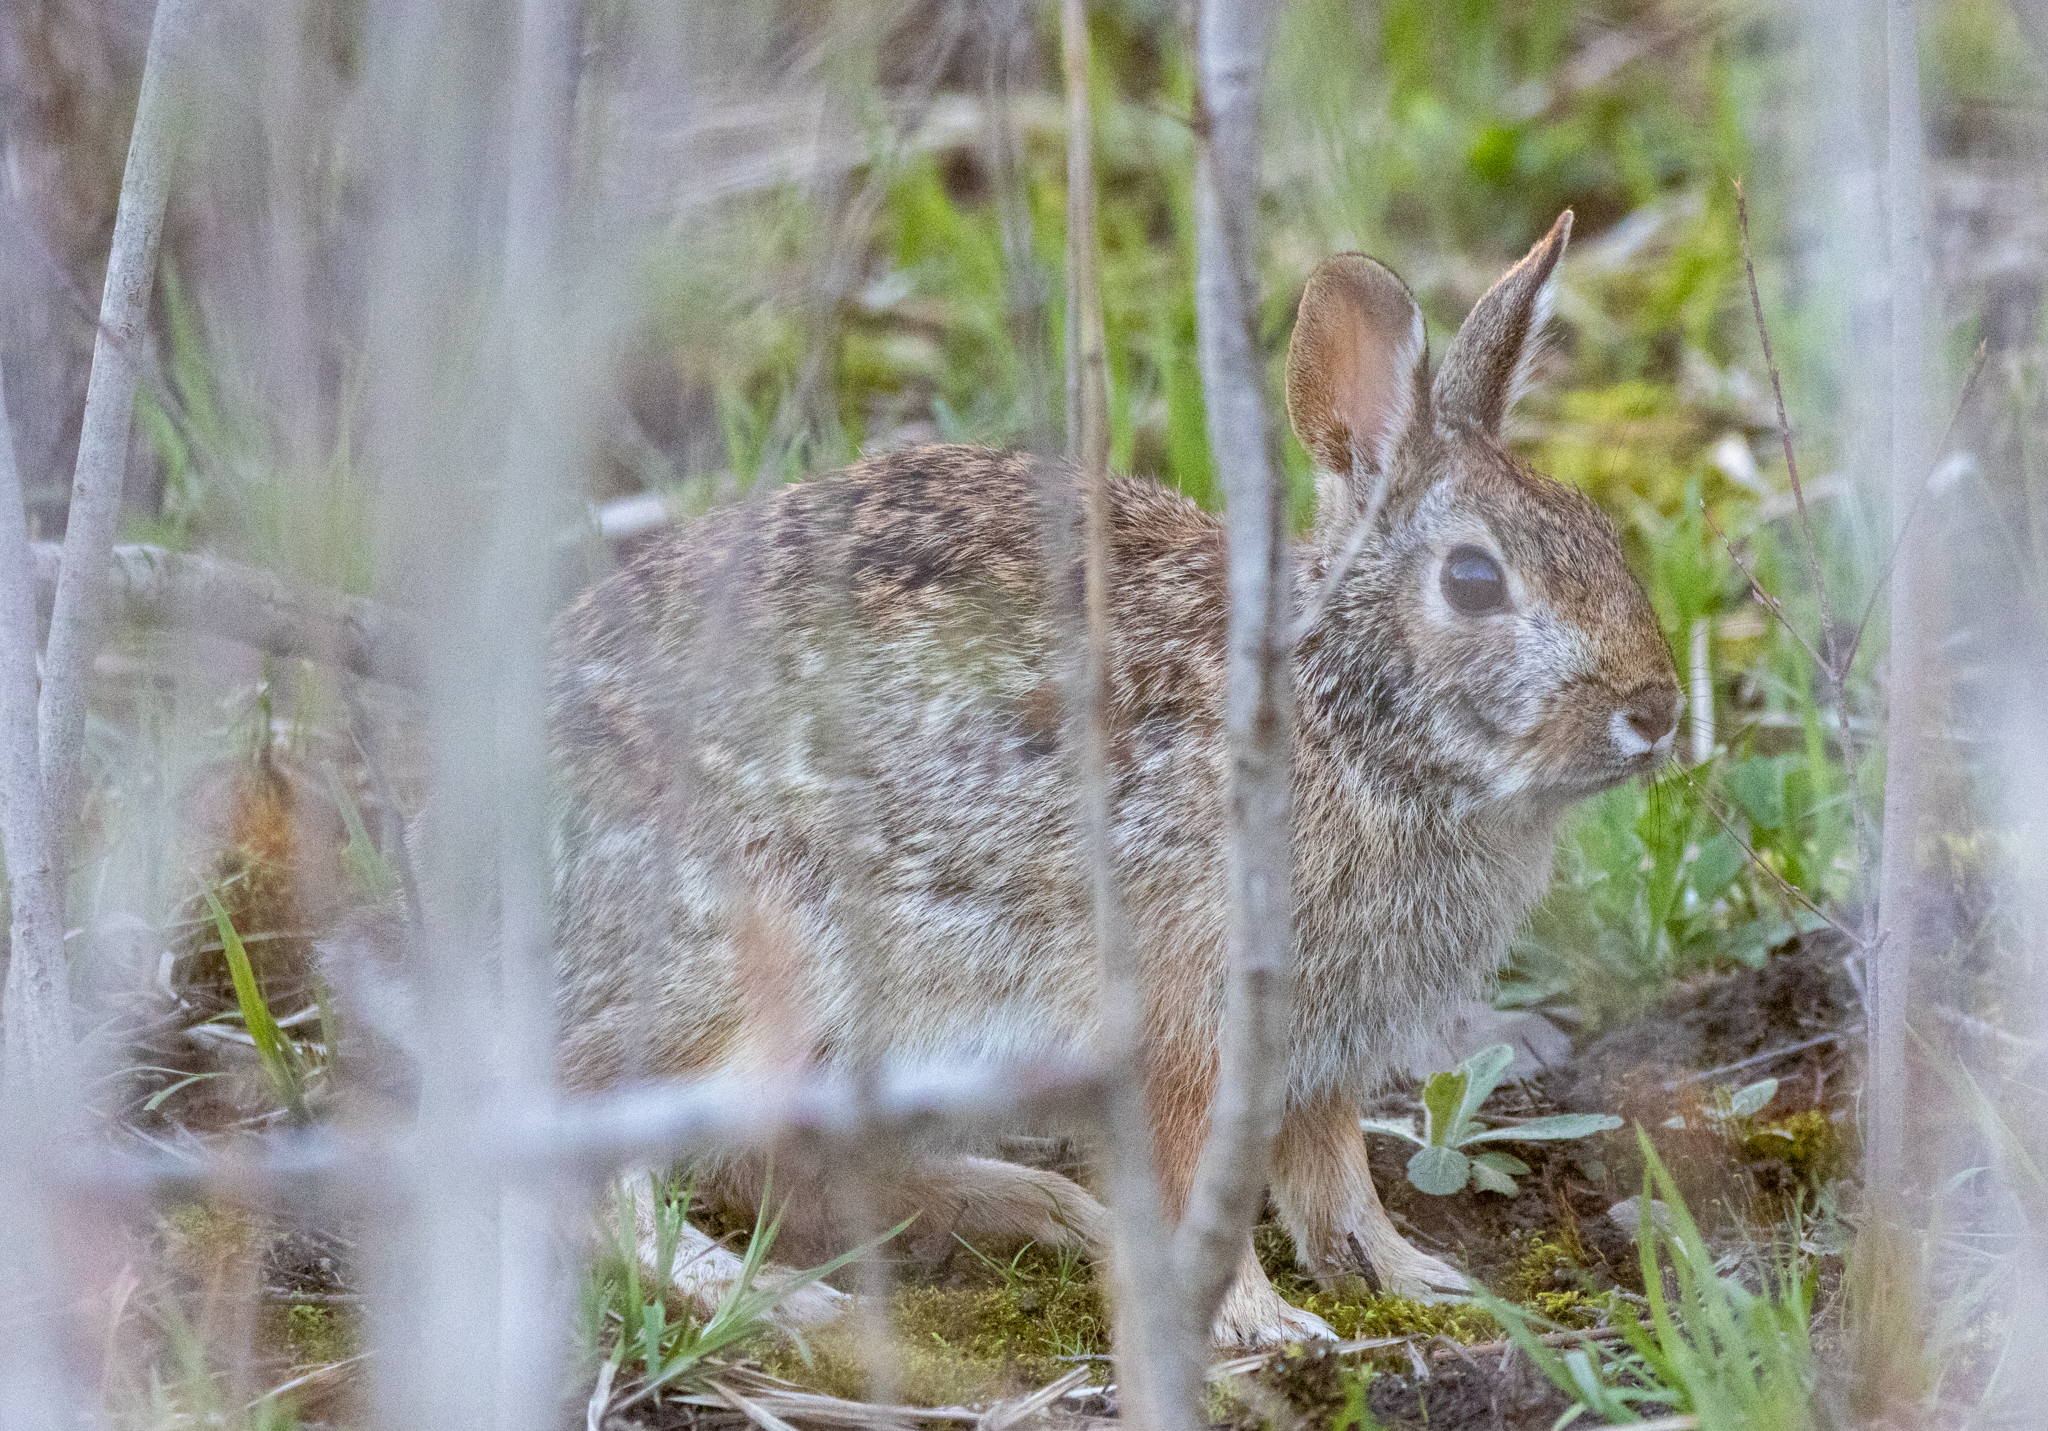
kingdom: Animalia
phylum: Chordata
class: Mammalia
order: Lagomorpha
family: Leporidae
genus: Sylvilagus
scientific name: Sylvilagus floridanus
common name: Eastern cottontail
